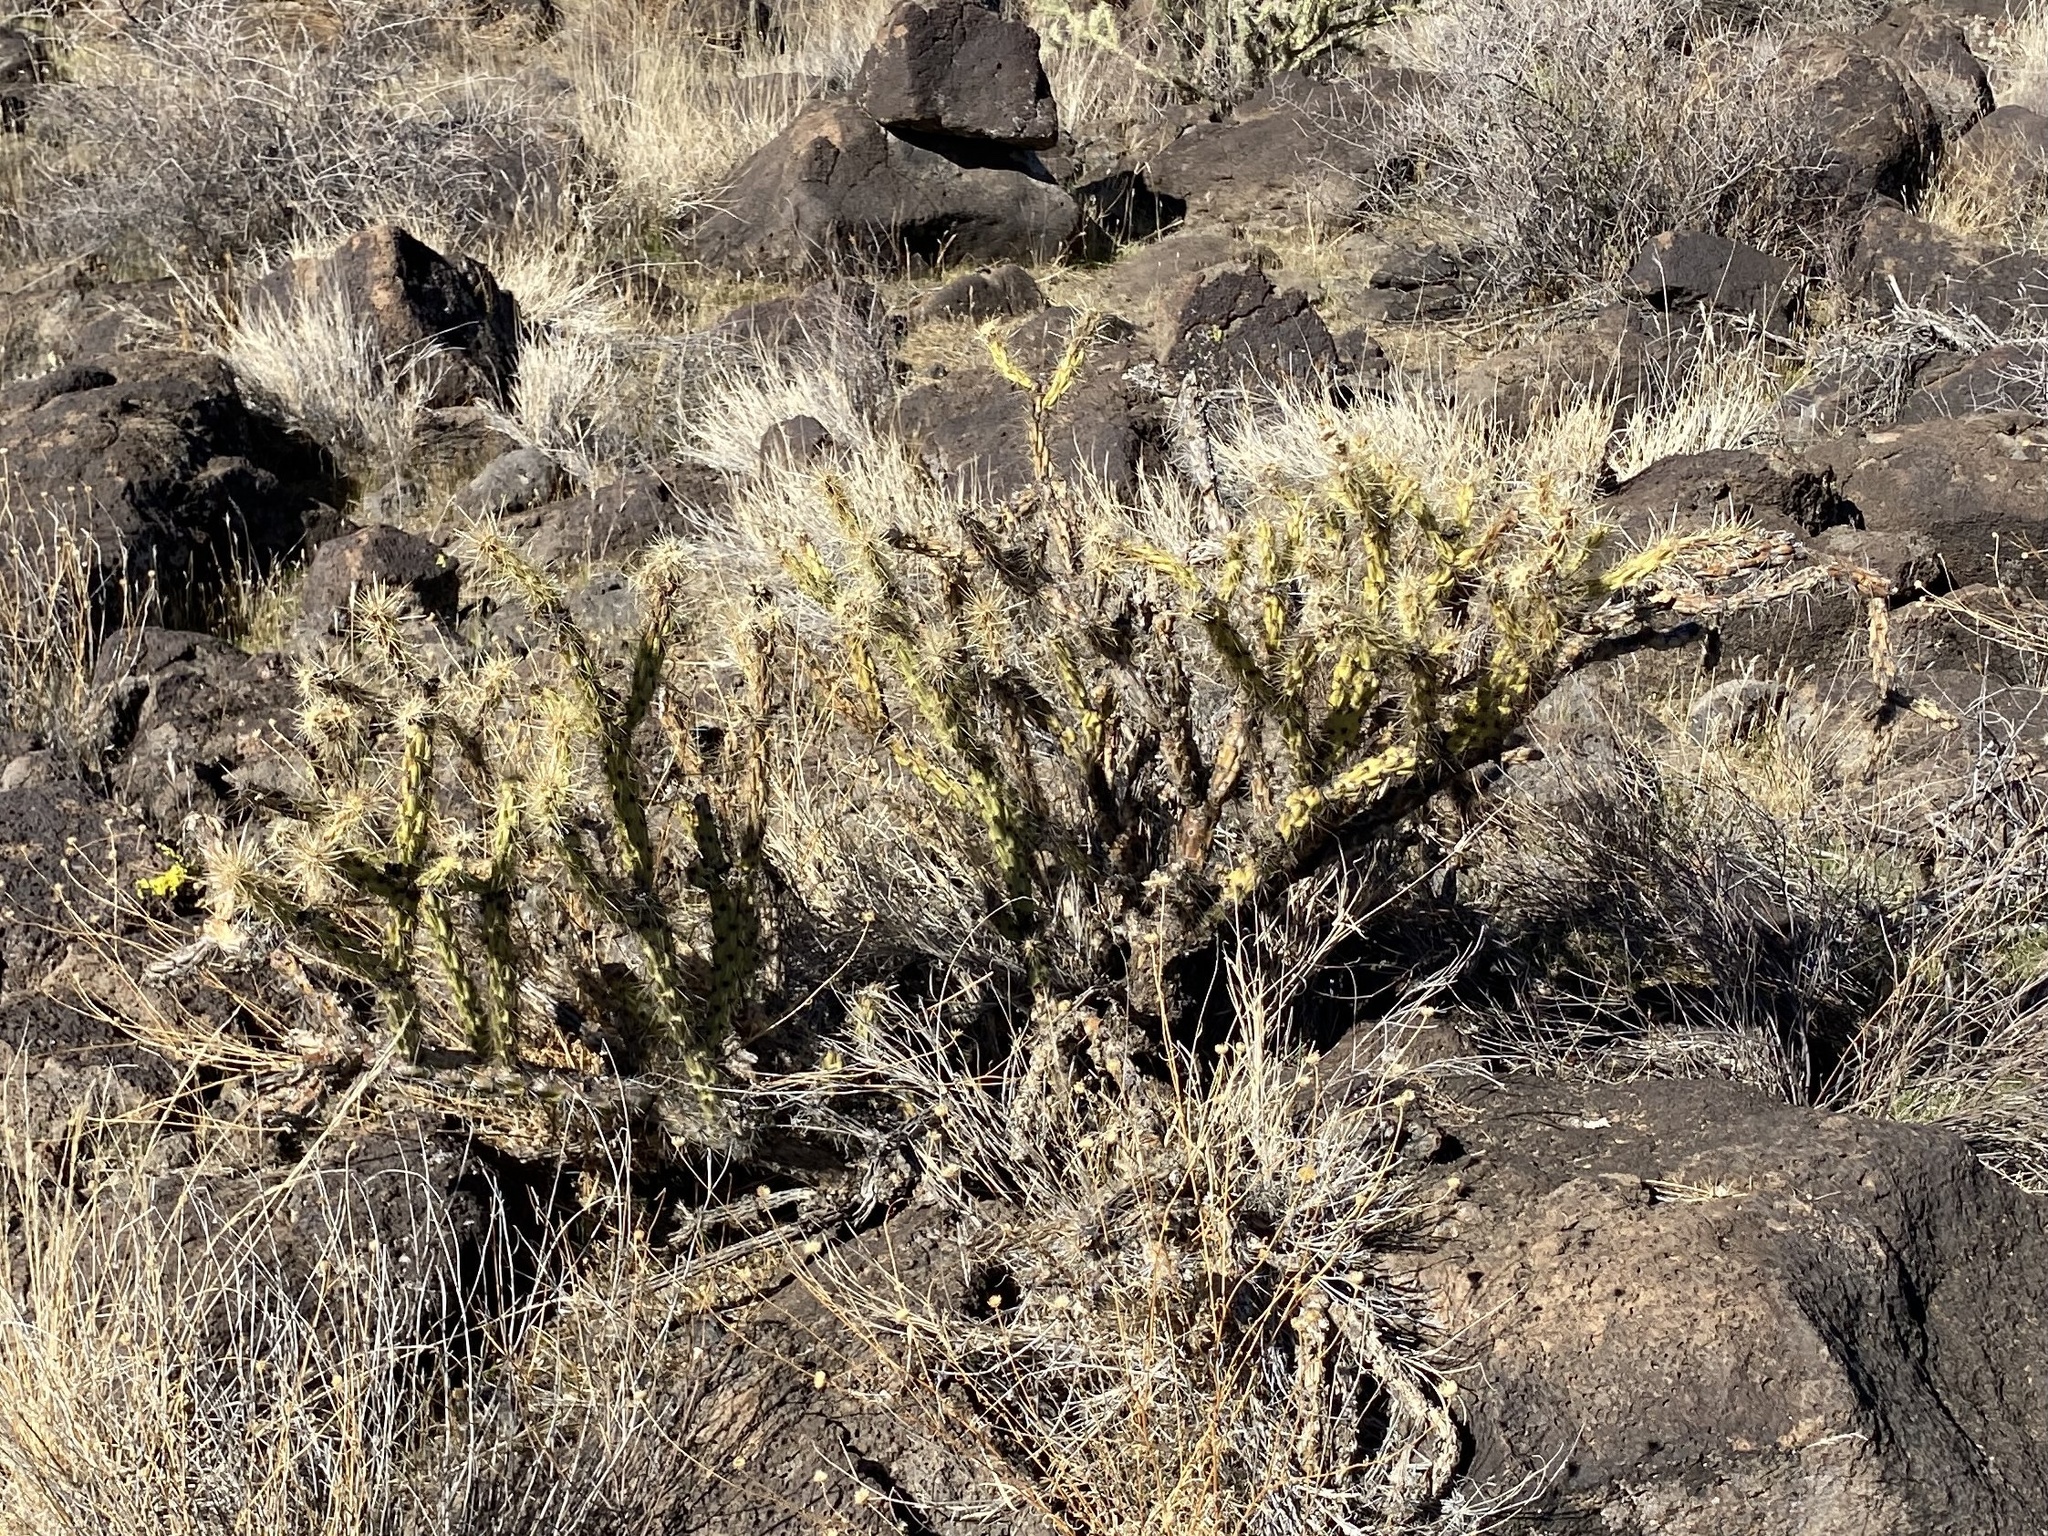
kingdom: Plantae
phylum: Tracheophyta
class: Magnoliopsida
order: Caryophyllales
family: Cactaceae
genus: Cylindropuntia
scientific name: Cylindropuntia acanthocarpa
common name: Buckhorn cholla
